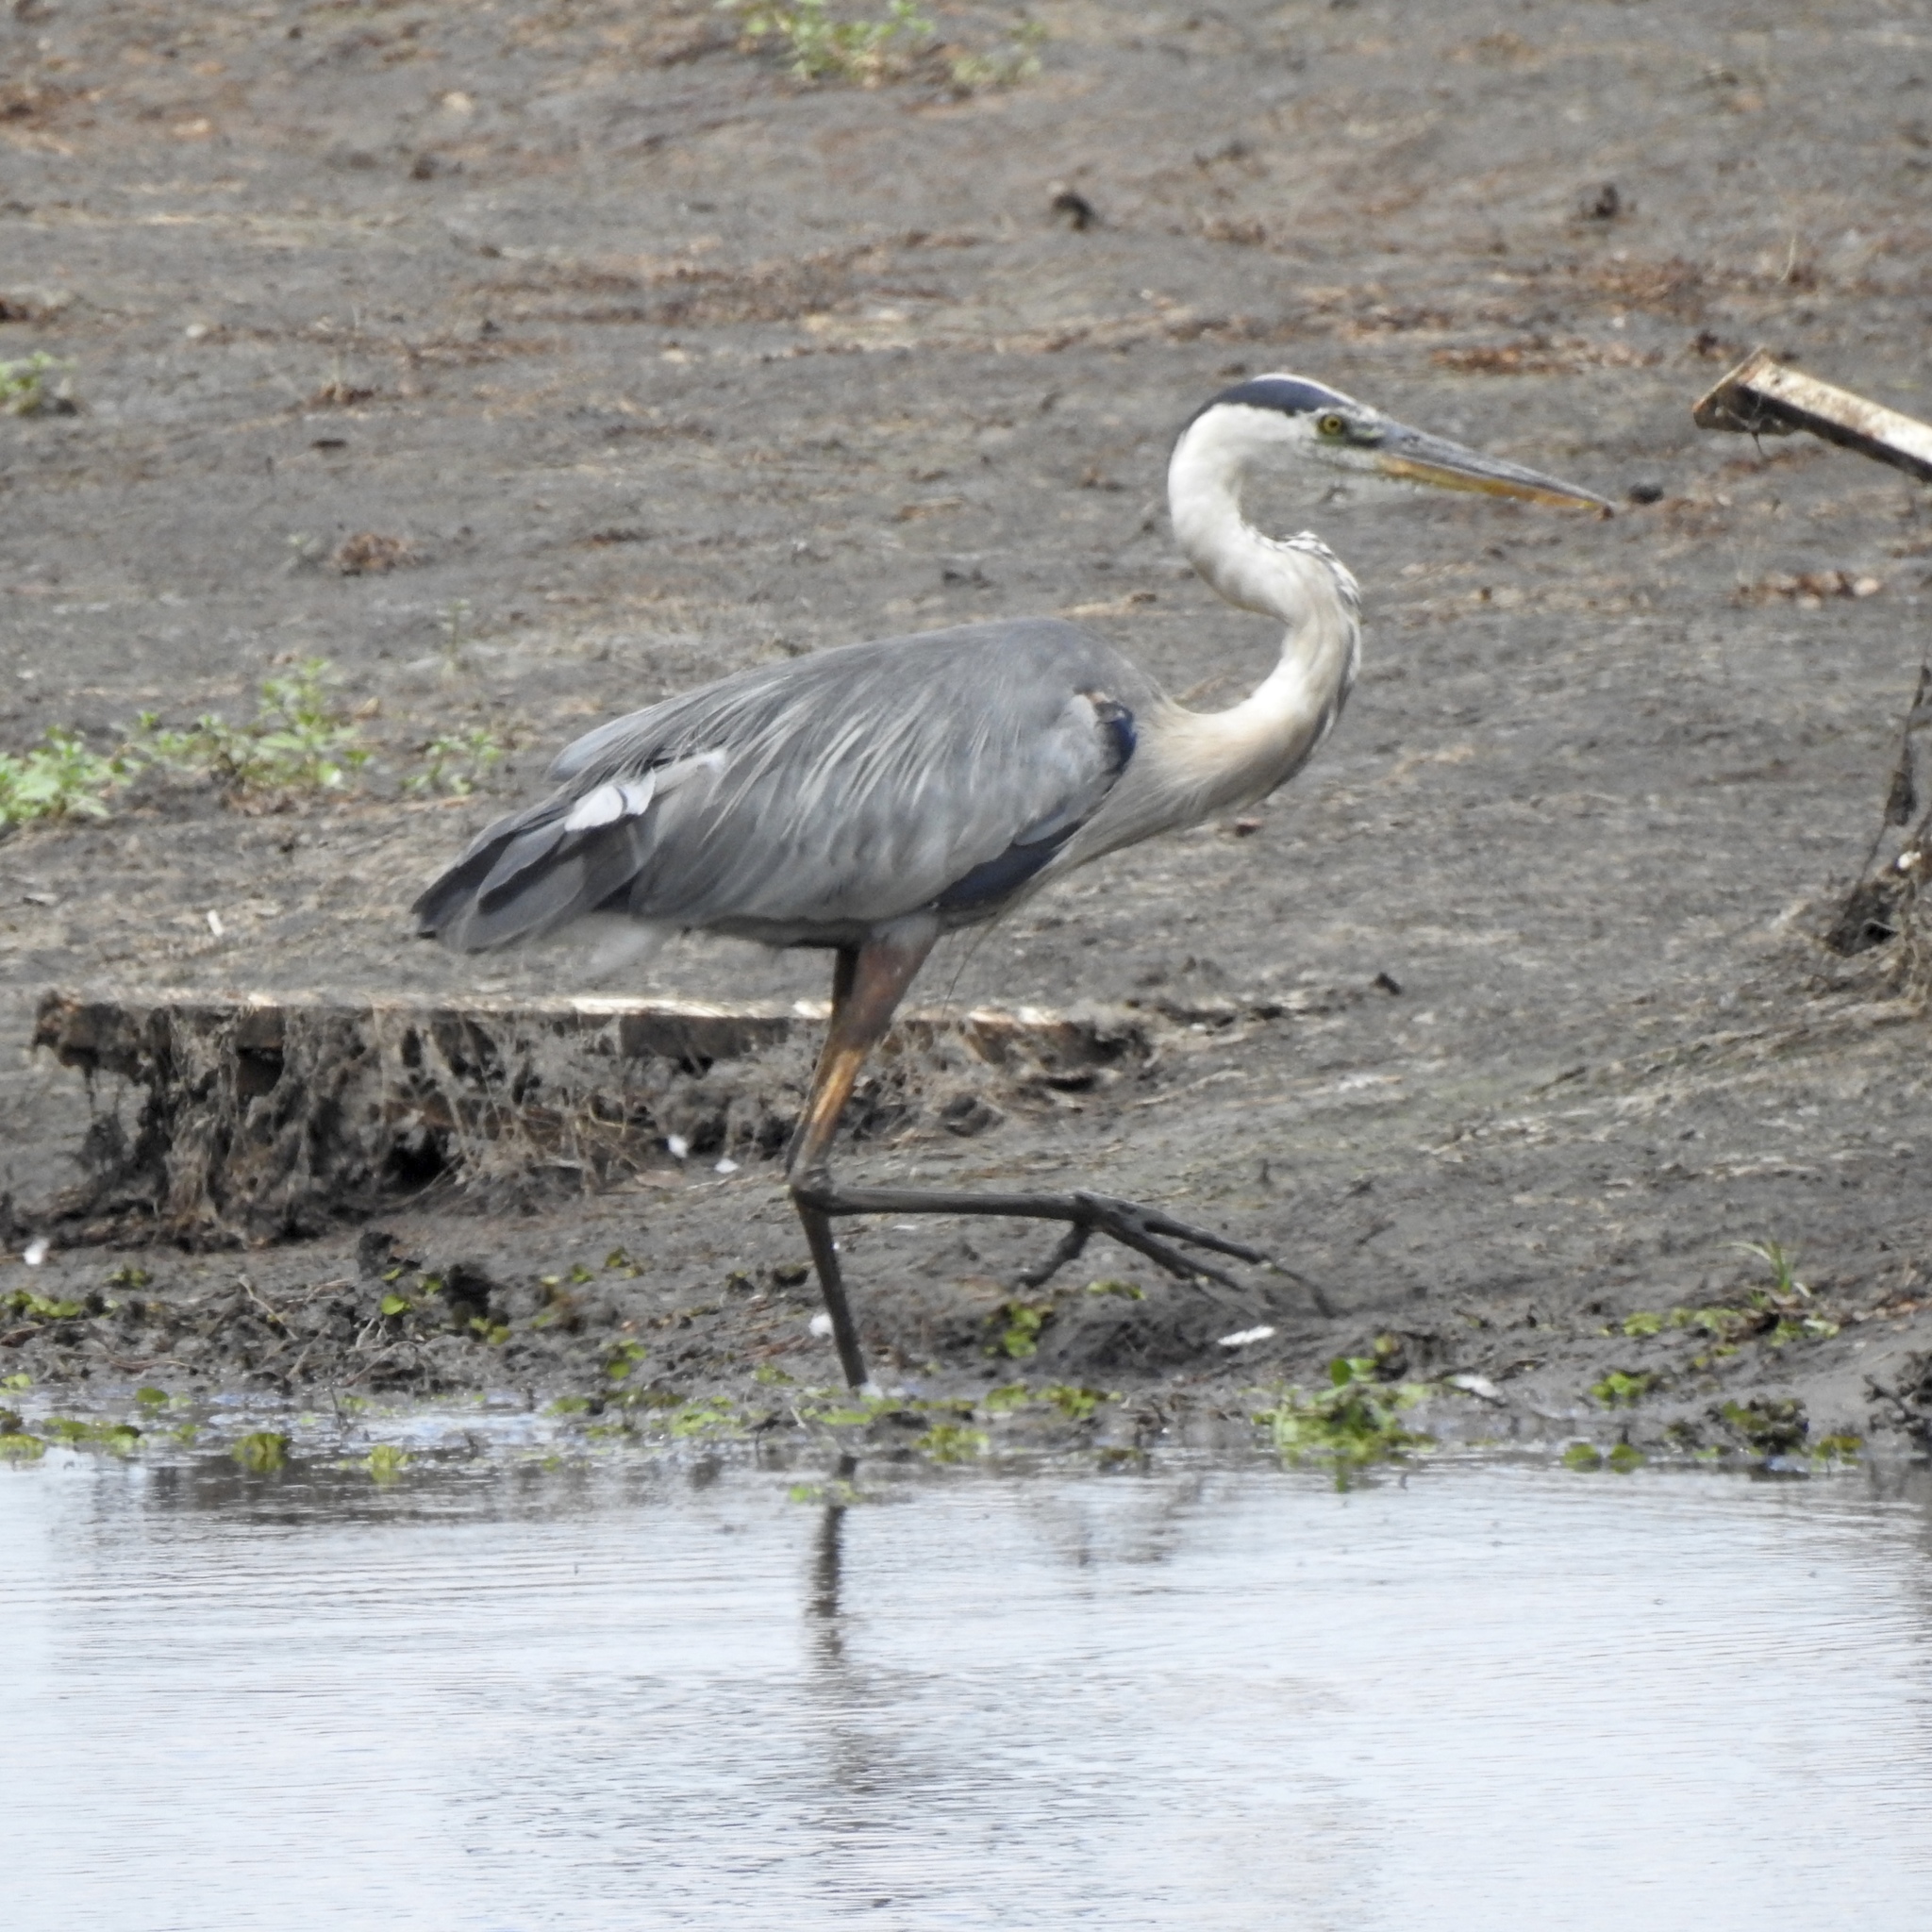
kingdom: Animalia
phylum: Chordata
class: Aves
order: Pelecaniformes
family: Ardeidae
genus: Ardea
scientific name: Ardea herodias
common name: Great blue heron
